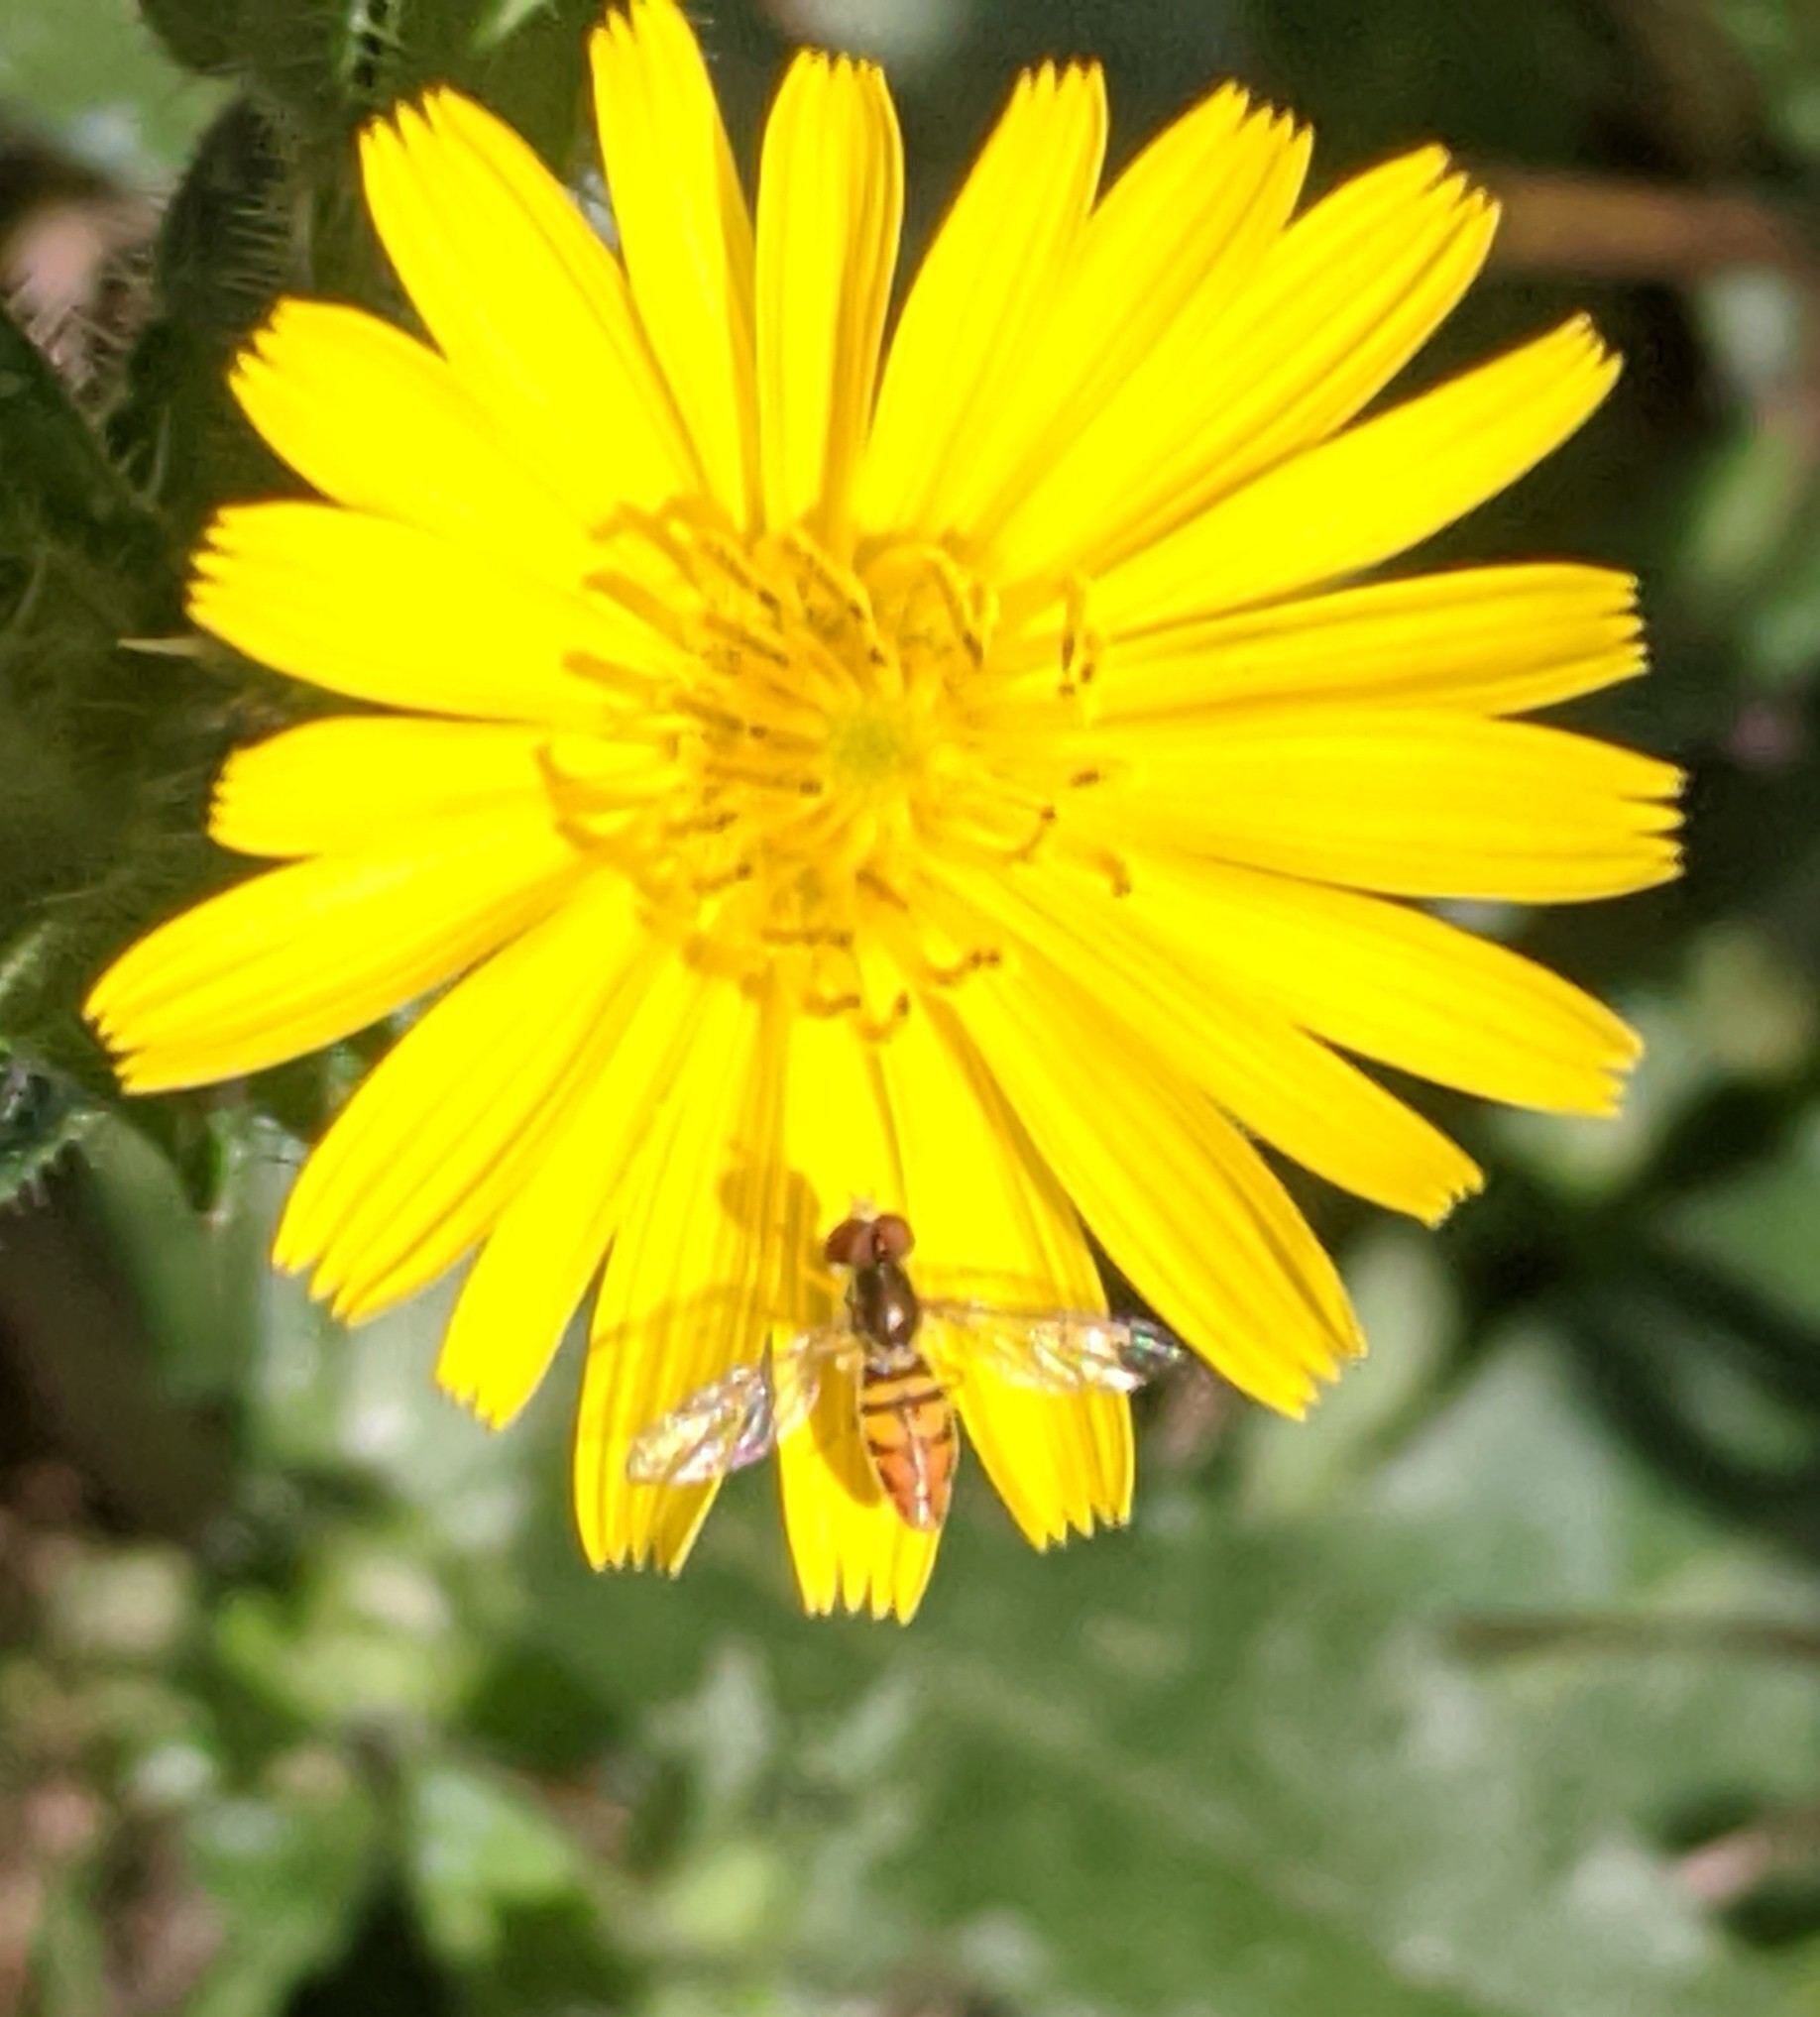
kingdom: Animalia
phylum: Arthropoda
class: Insecta
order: Diptera
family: Syrphidae
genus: Toxomerus
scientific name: Toxomerus marginatus
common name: Syrphid fly
